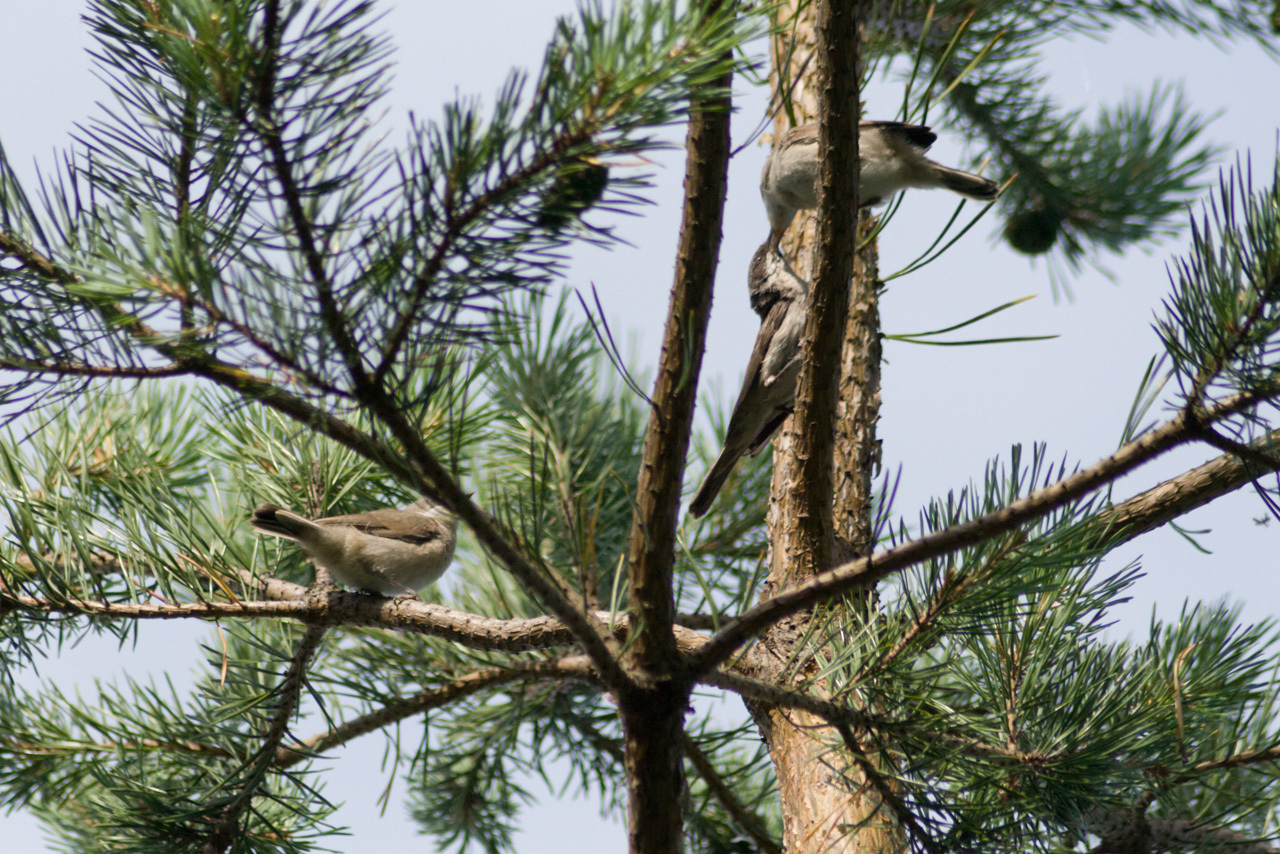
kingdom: Animalia
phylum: Chordata
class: Aves
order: Passeriformes
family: Sylviidae
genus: Sylvia
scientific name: Sylvia curruca
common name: Lesser whitethroat
